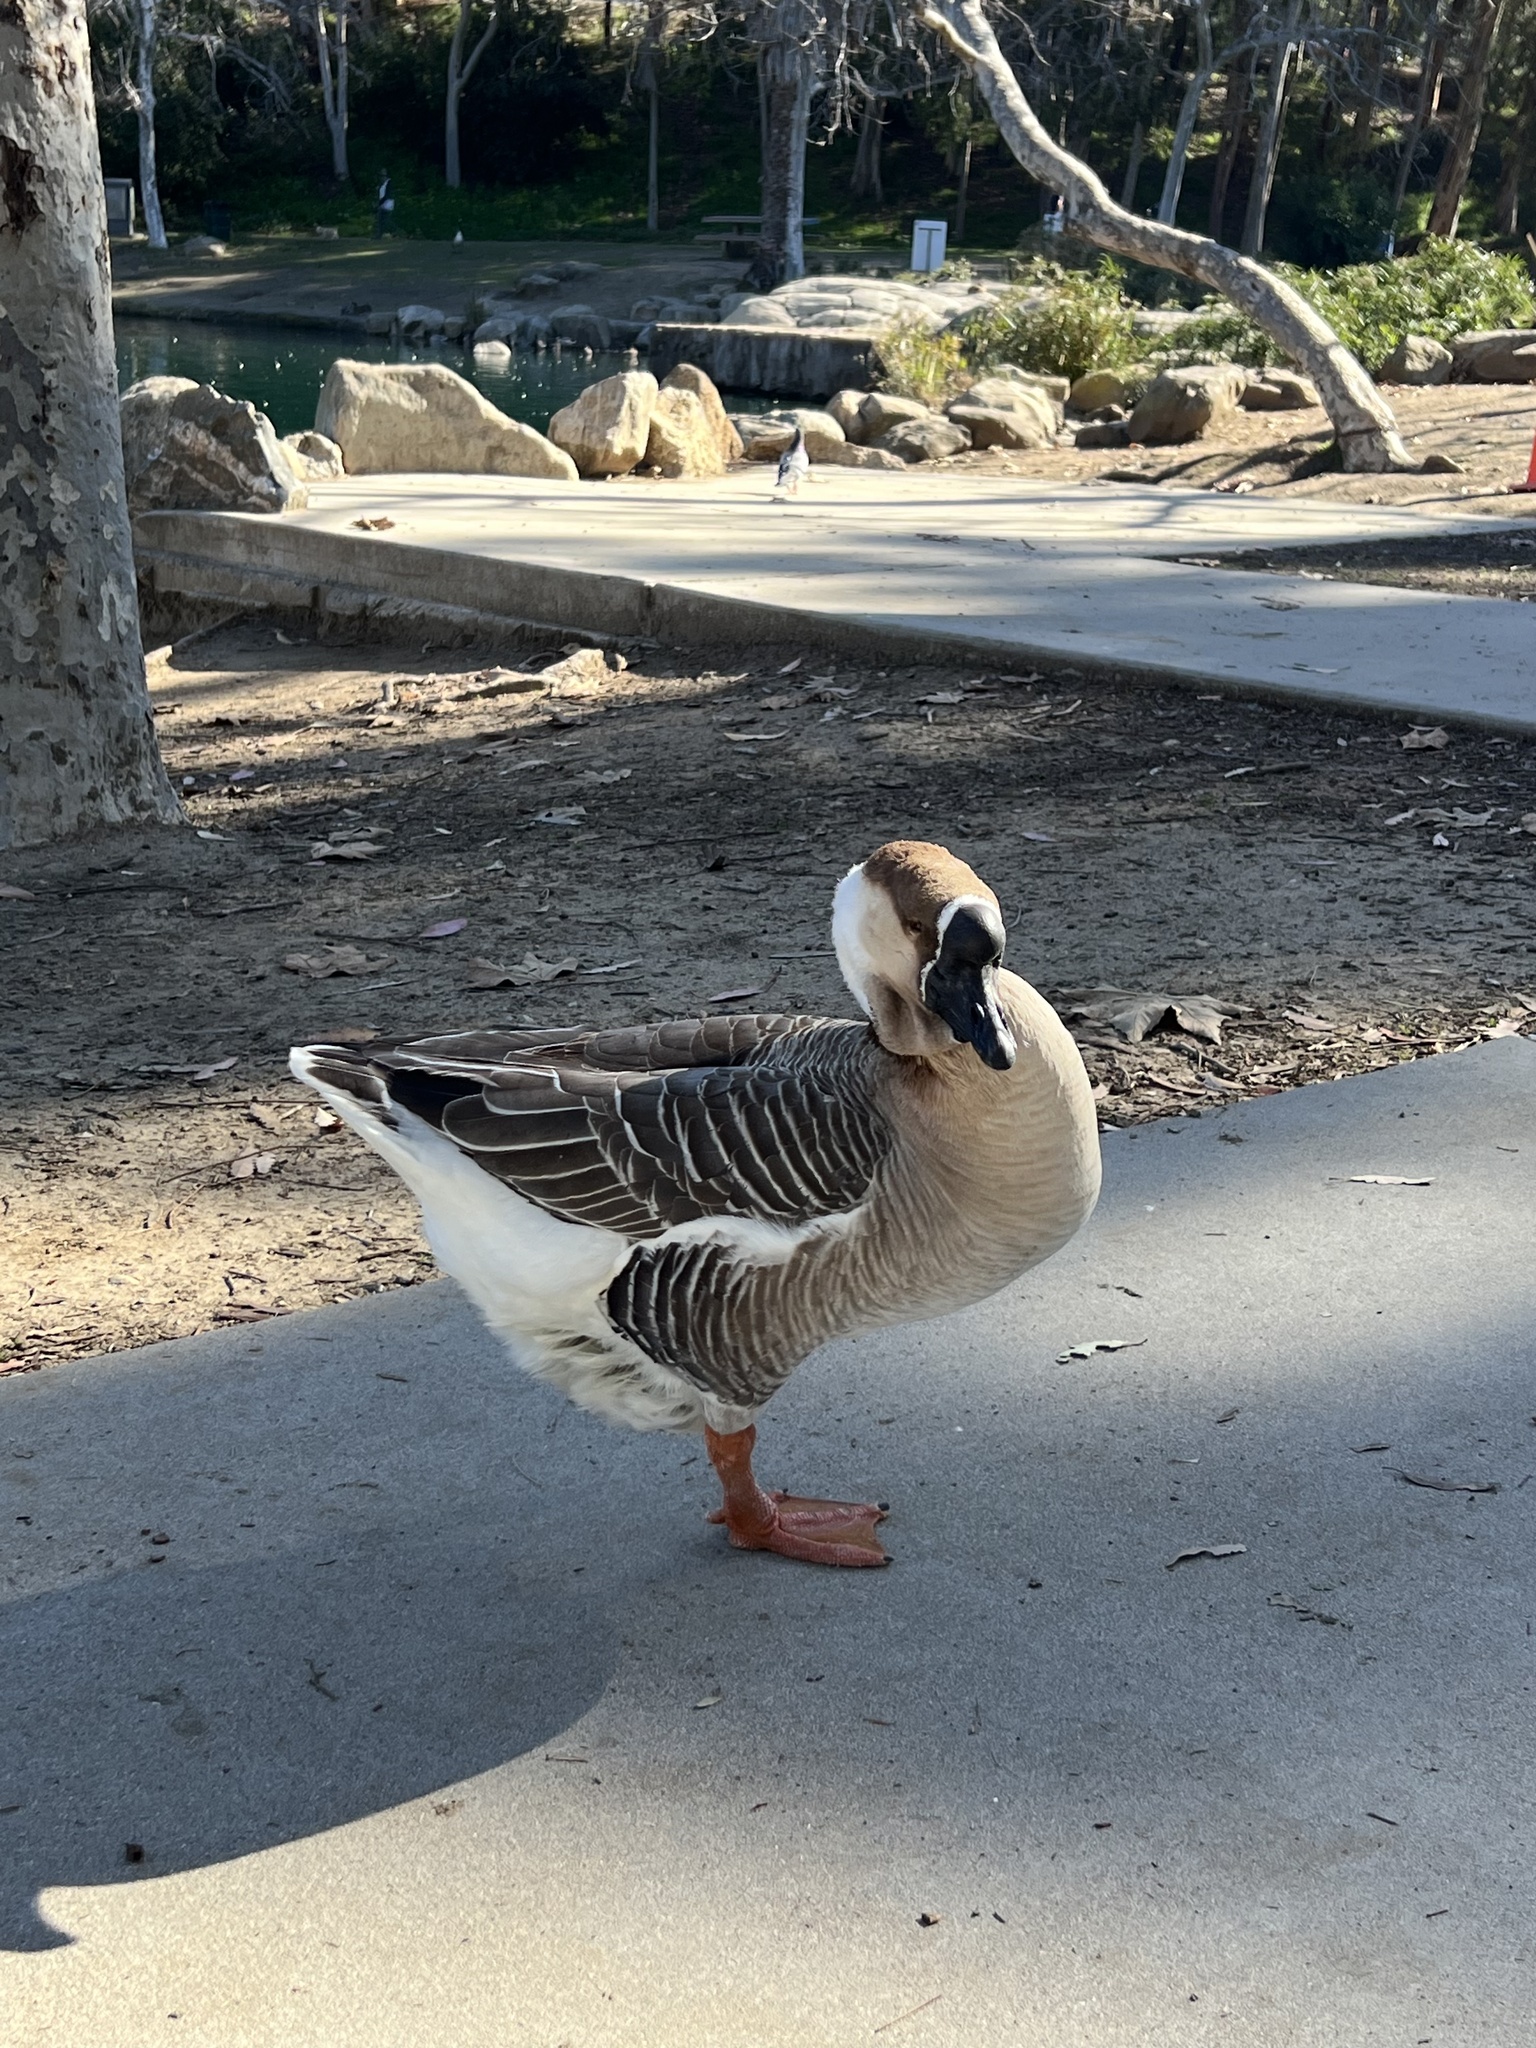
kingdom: Animalia
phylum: Chordata
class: Aves
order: Anseriformes
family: Anatidae
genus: Anser
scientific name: Anser cygnoides
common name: Swan goose
